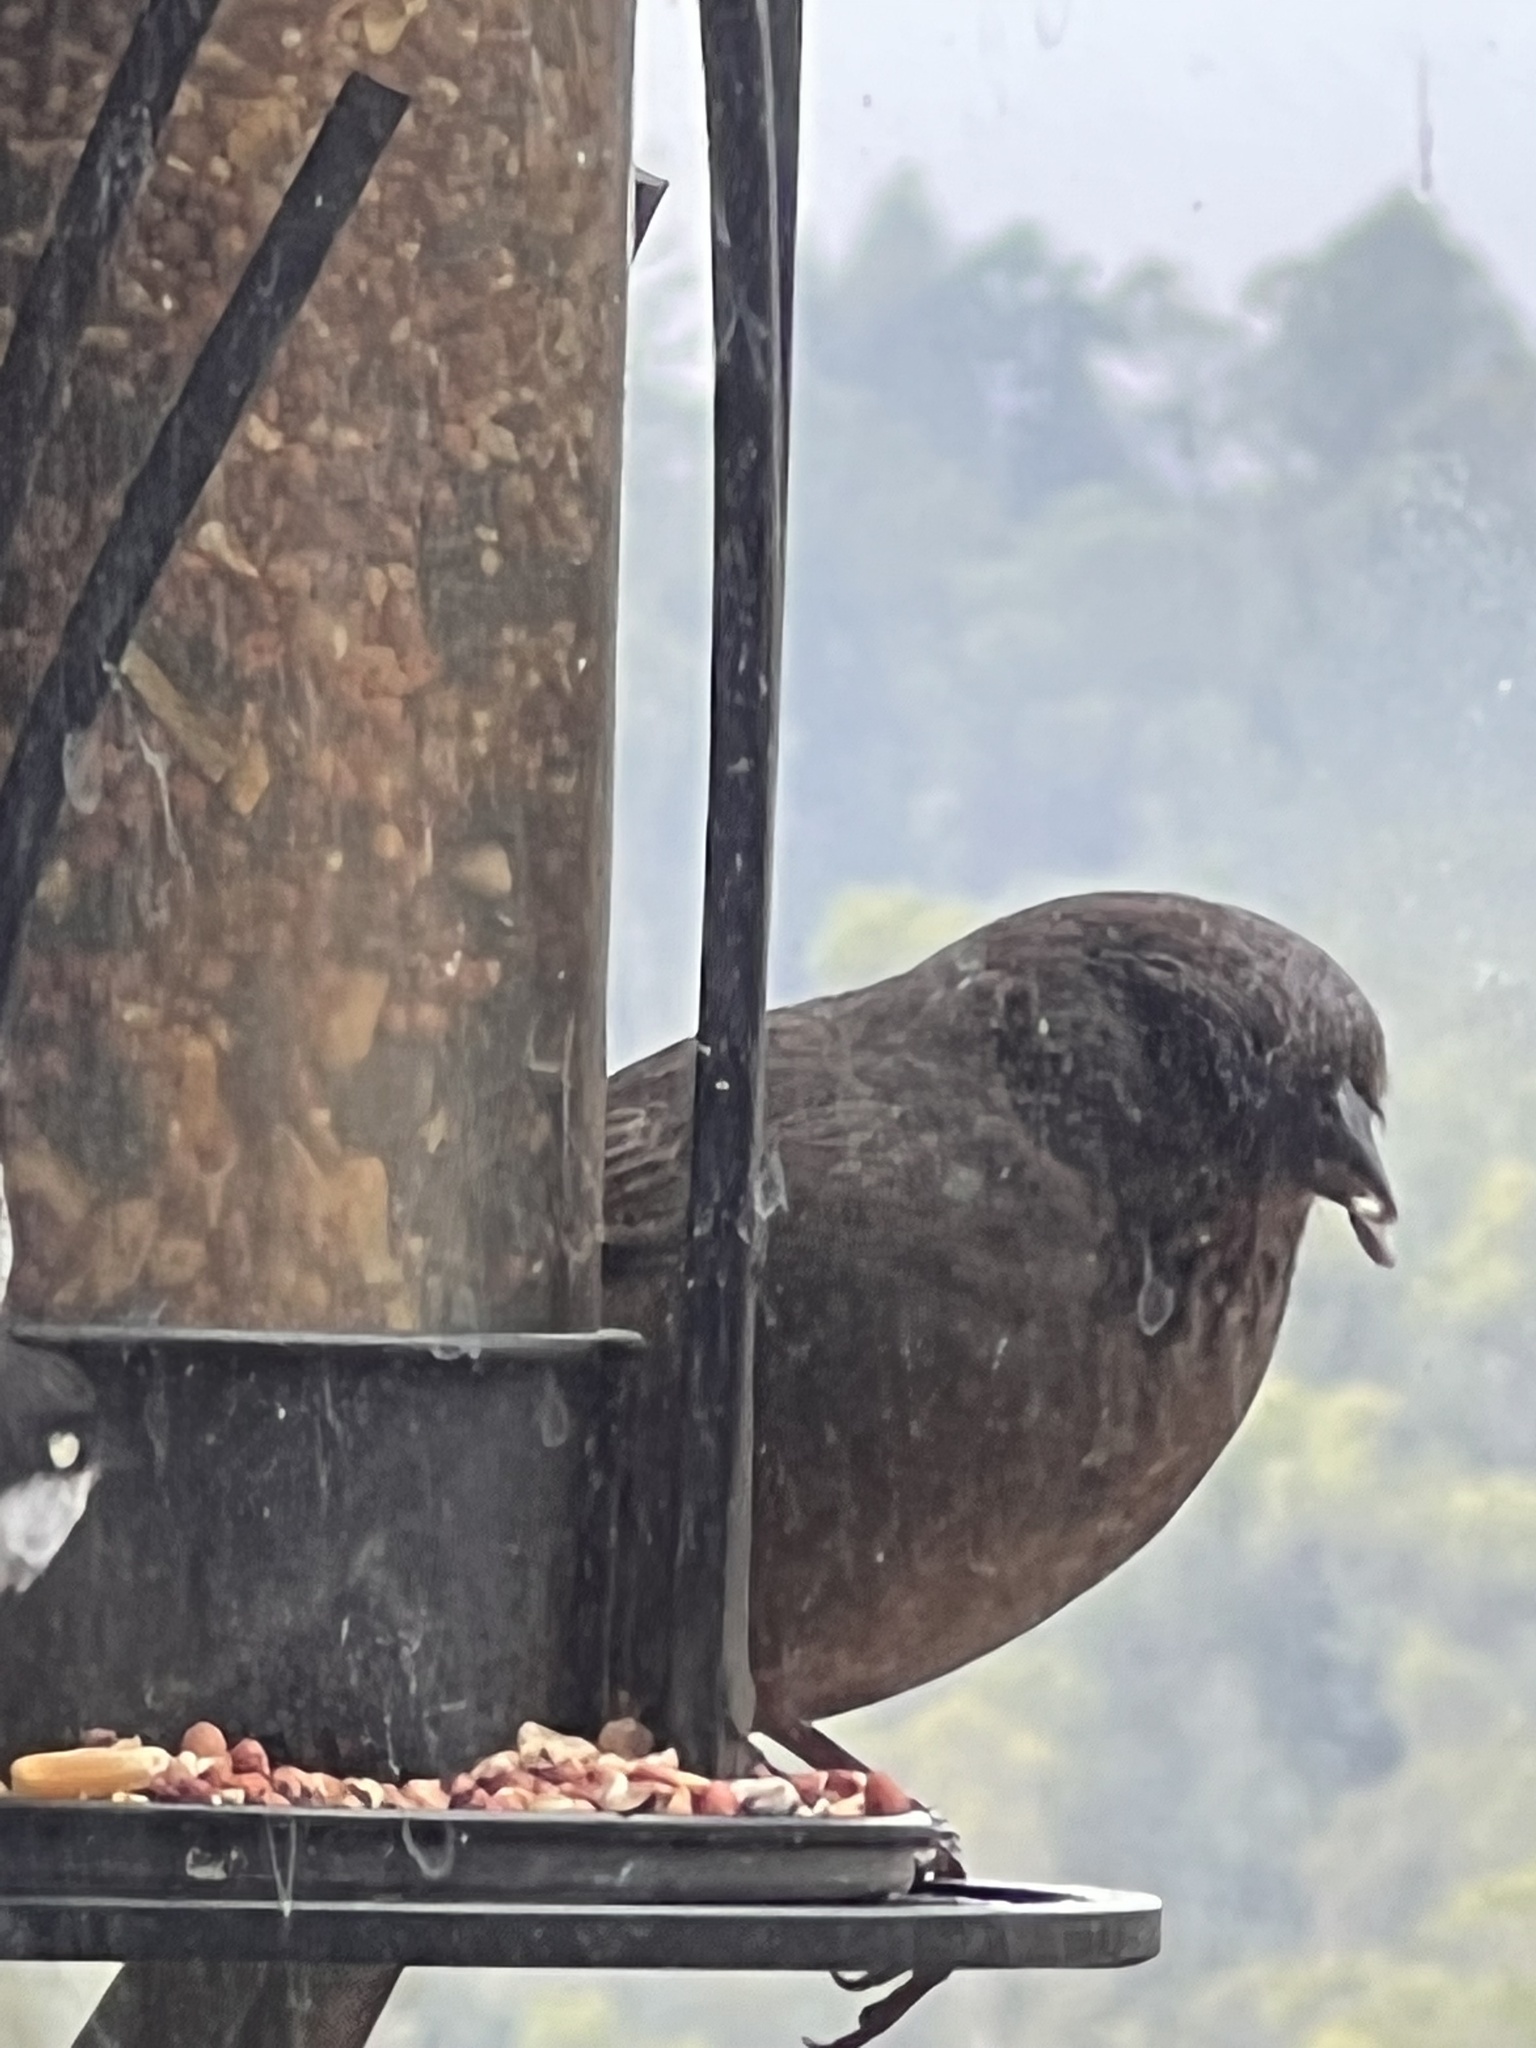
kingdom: Animalia
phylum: Chordata
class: Aves
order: Passeriformes
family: Passerellidae
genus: Melozone
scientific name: Melozone crissalis
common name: California towhee
